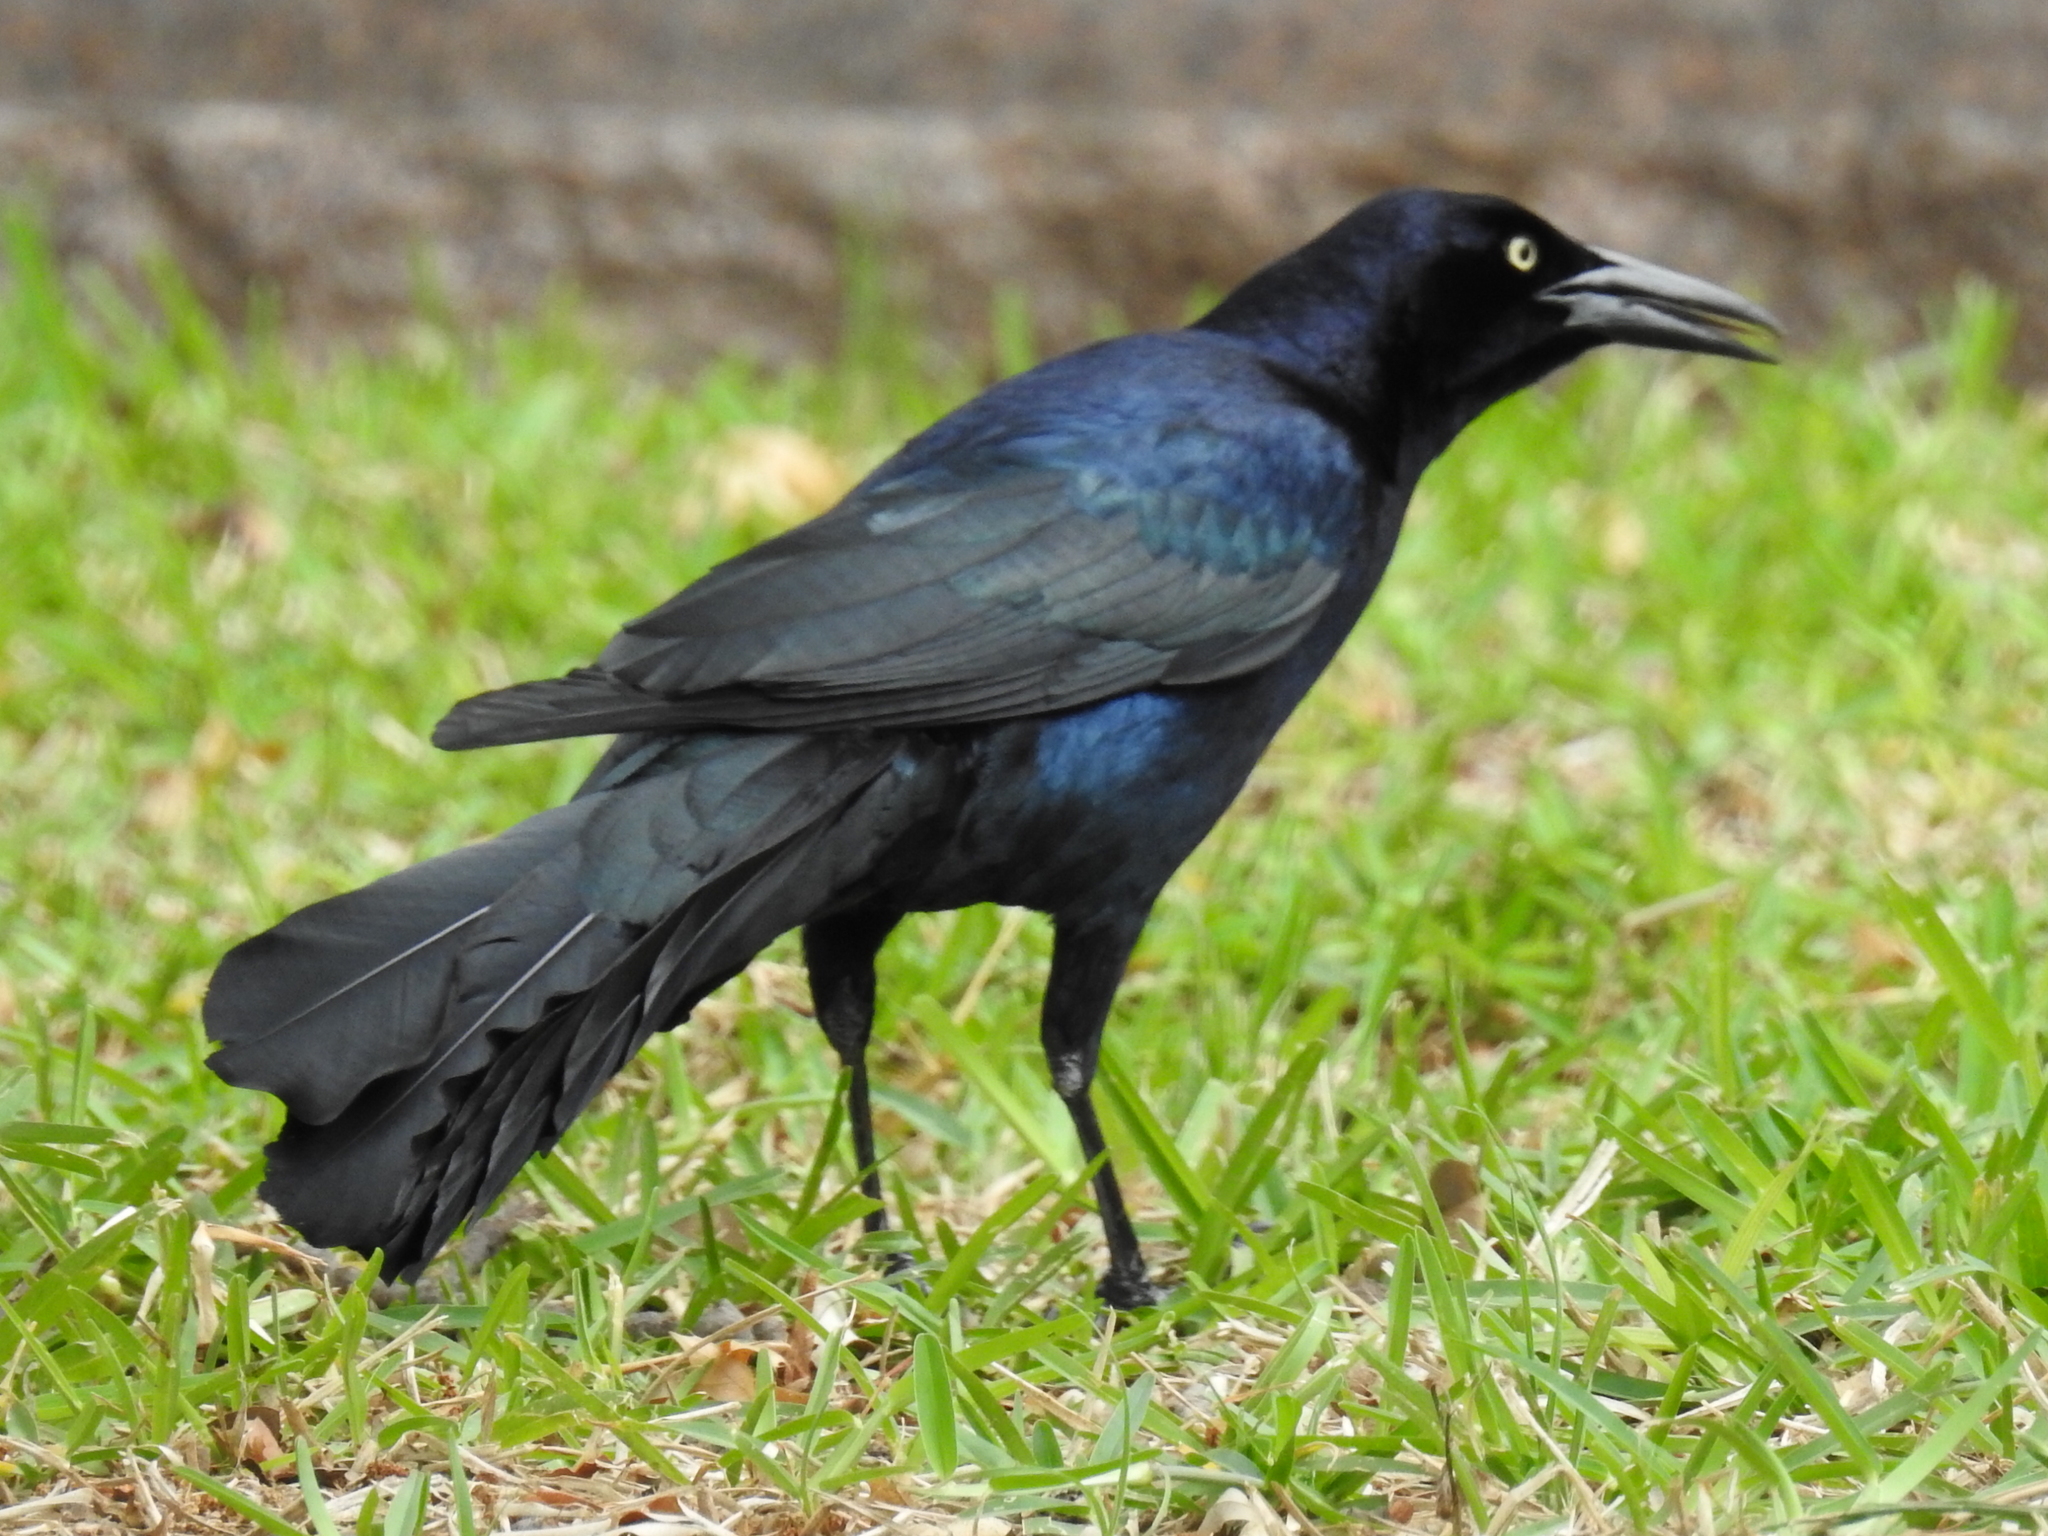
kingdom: Animalia
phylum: Chordata
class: Aves
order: Passeriformes
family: Icteridae
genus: Quiscalus
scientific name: Quiscalus mexicanus
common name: Great-tailed grackle
